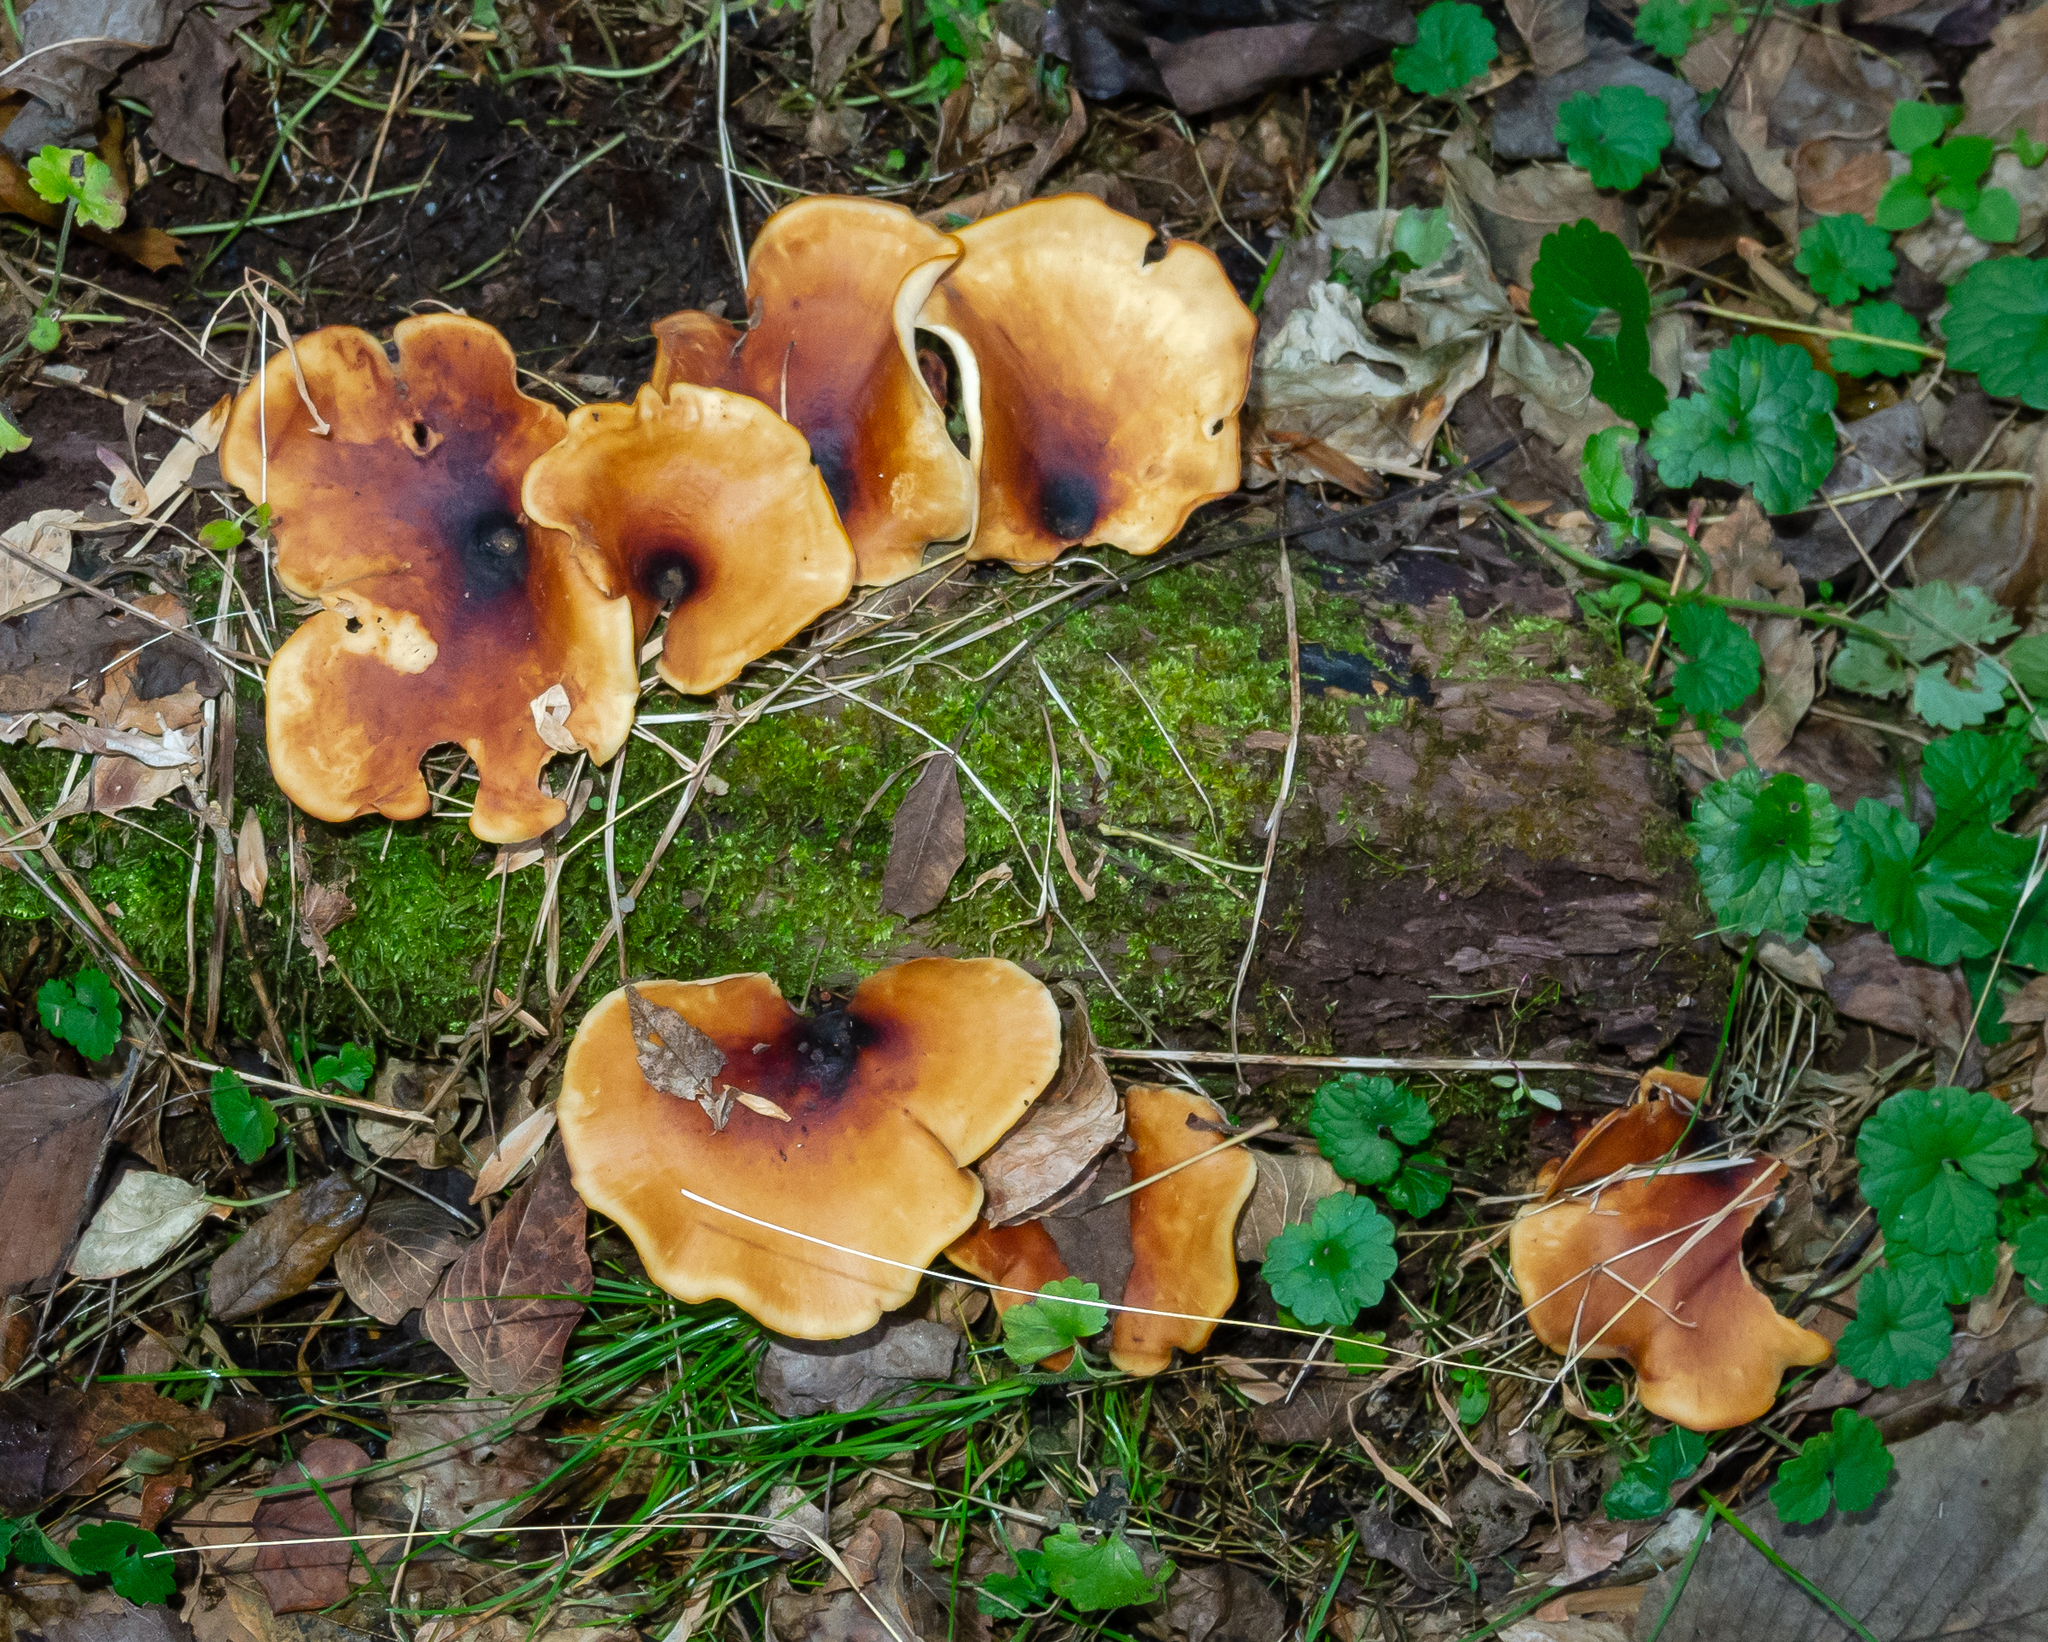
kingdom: Fungi
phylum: Basidiomycota
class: Agaricomycetes
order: Polyporales
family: Polyporaceae
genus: Picipes
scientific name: Picipes badius
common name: Bay polypore
